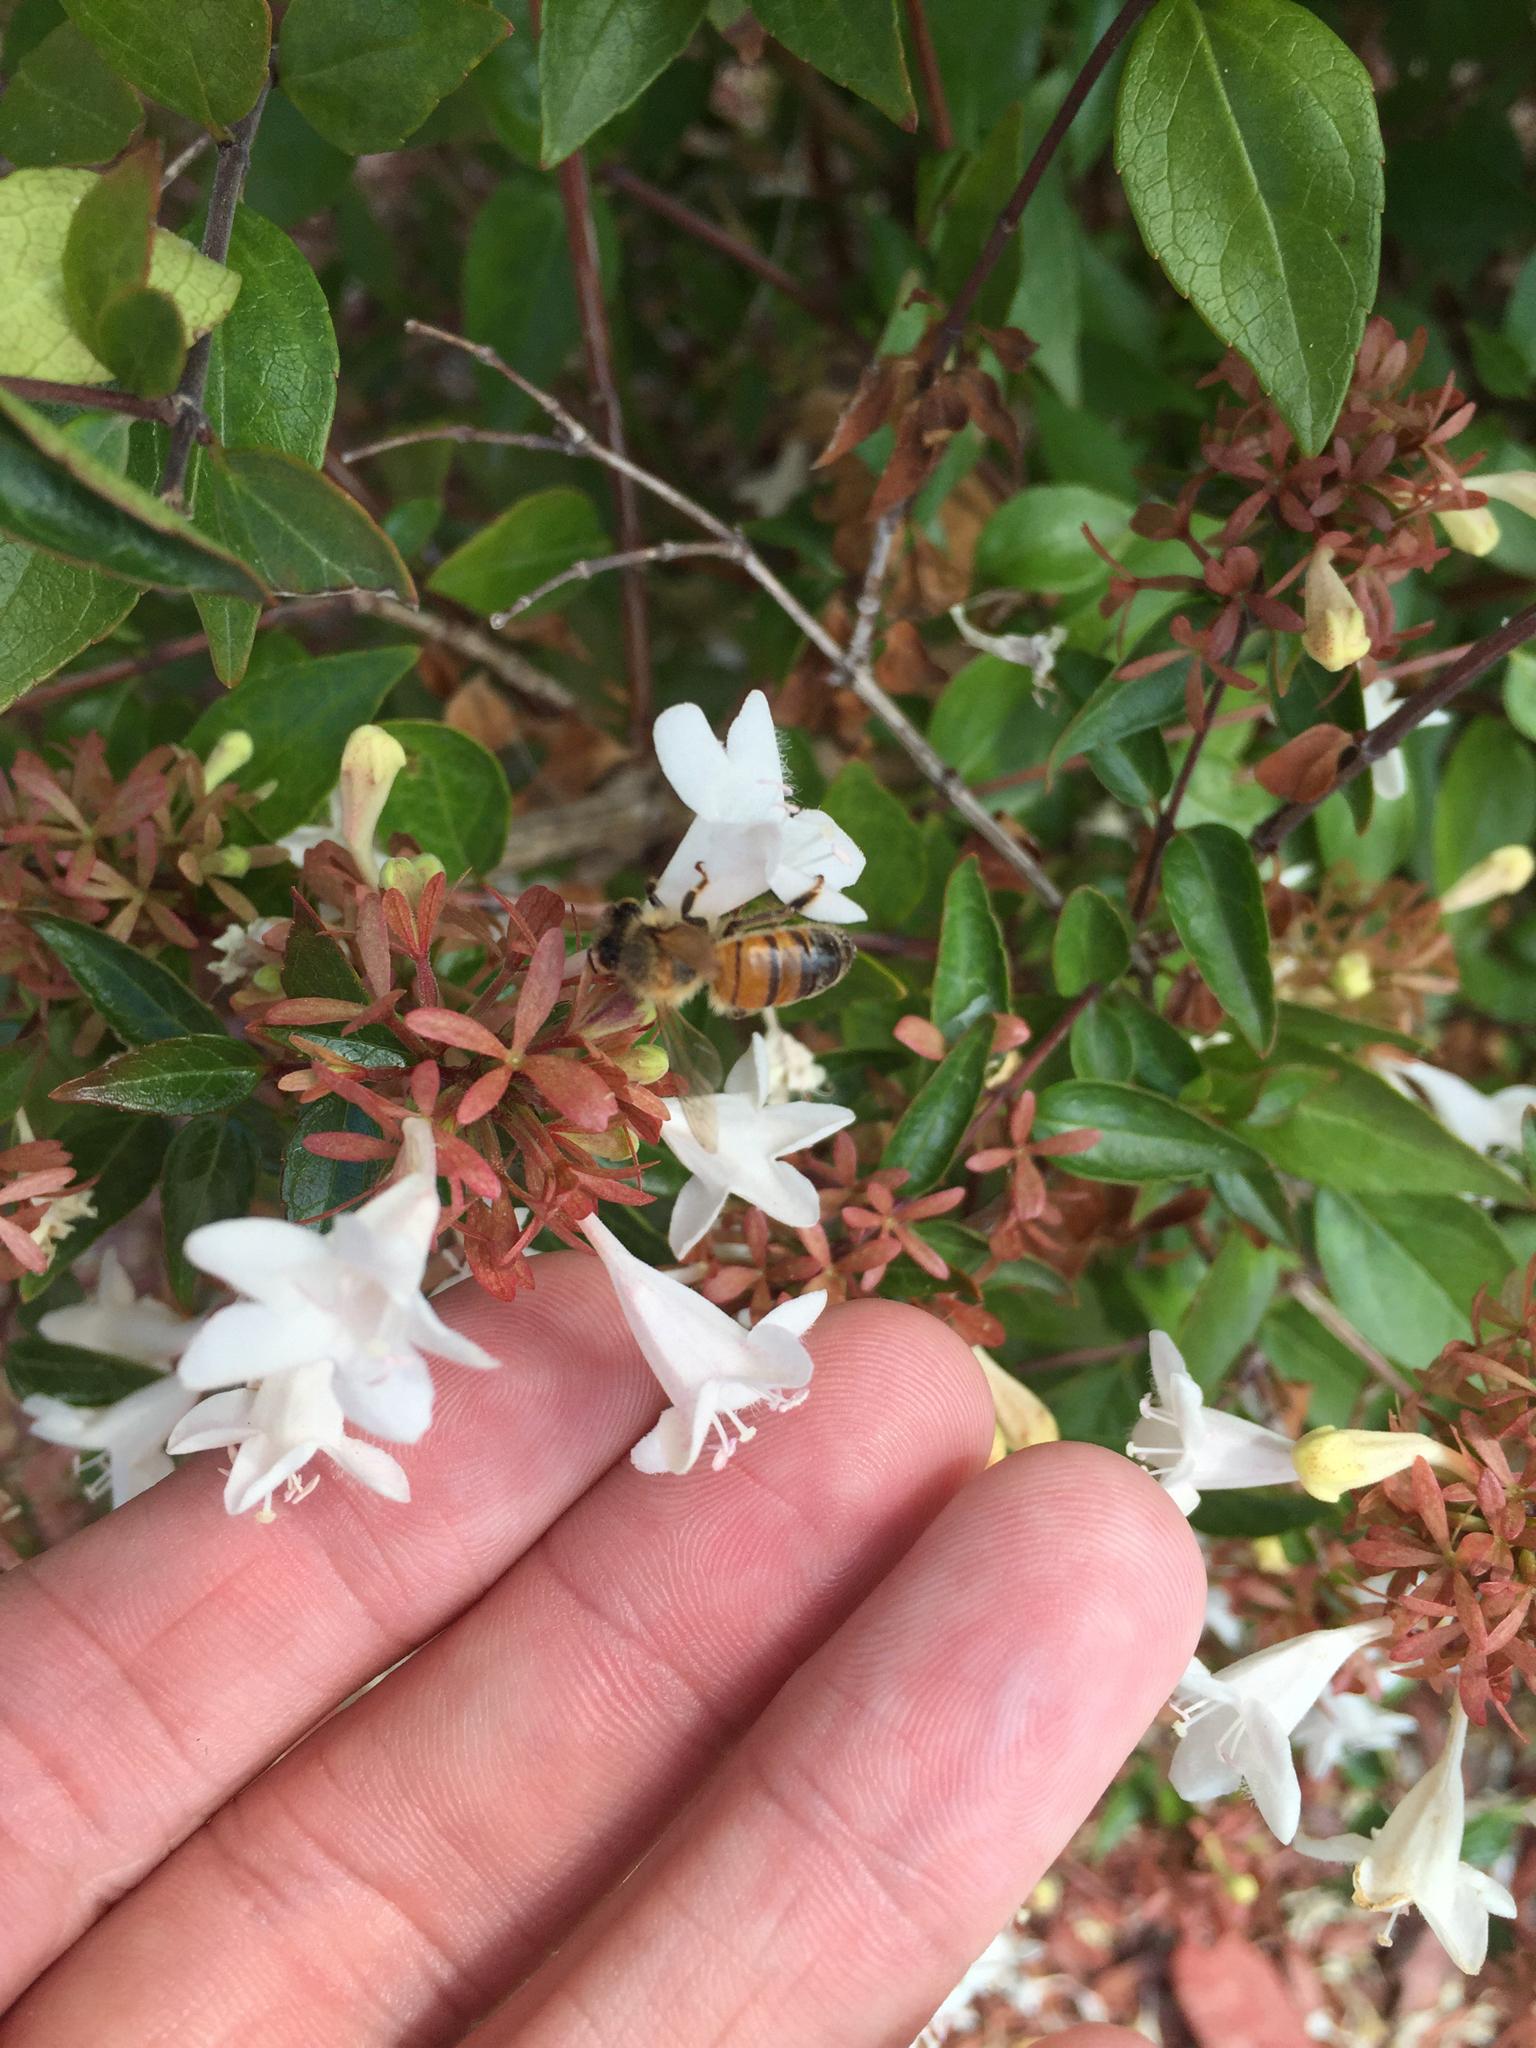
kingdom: Animalia
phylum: Arthropoda
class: Insecta
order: Hymenoptera
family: Apidae
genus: Apis
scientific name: Apis mellifera
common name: Honey bee
